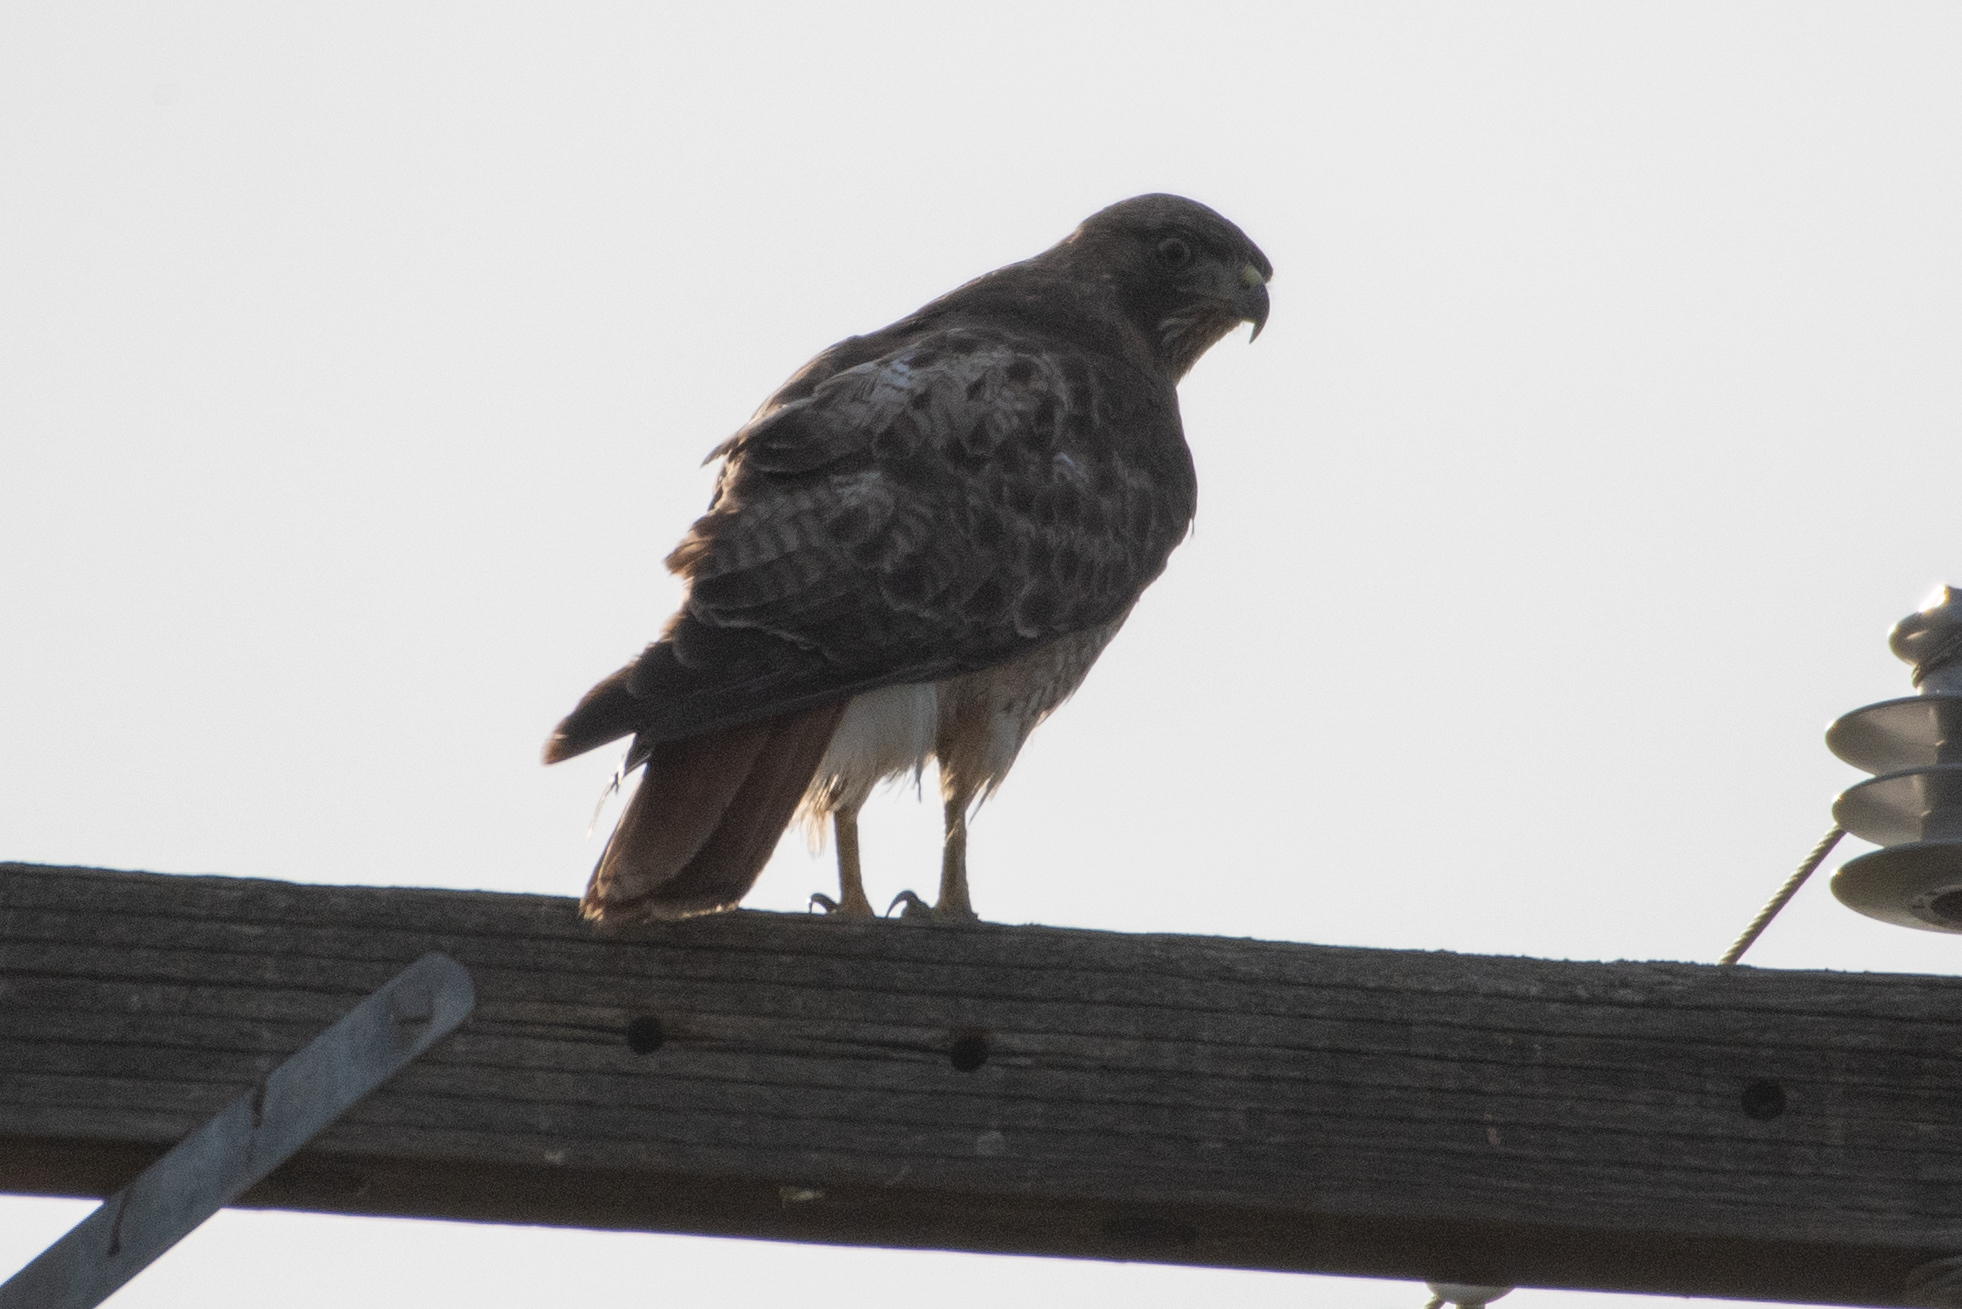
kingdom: Animalia
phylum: Chordata
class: Aves
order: Accipitriformes
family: Accipitridae
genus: Buteo
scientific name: Buteo jamaicensis
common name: Red-tailed hawk
